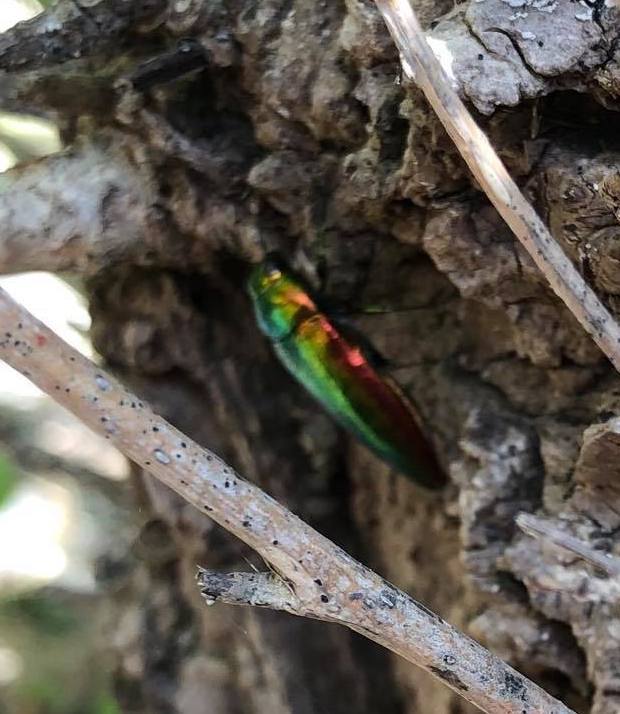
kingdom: Animalia
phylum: Arthropoda
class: Insecta
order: Coleoptera
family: Buprestidae
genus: Eurythyrea
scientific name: Eurythyrea micans
